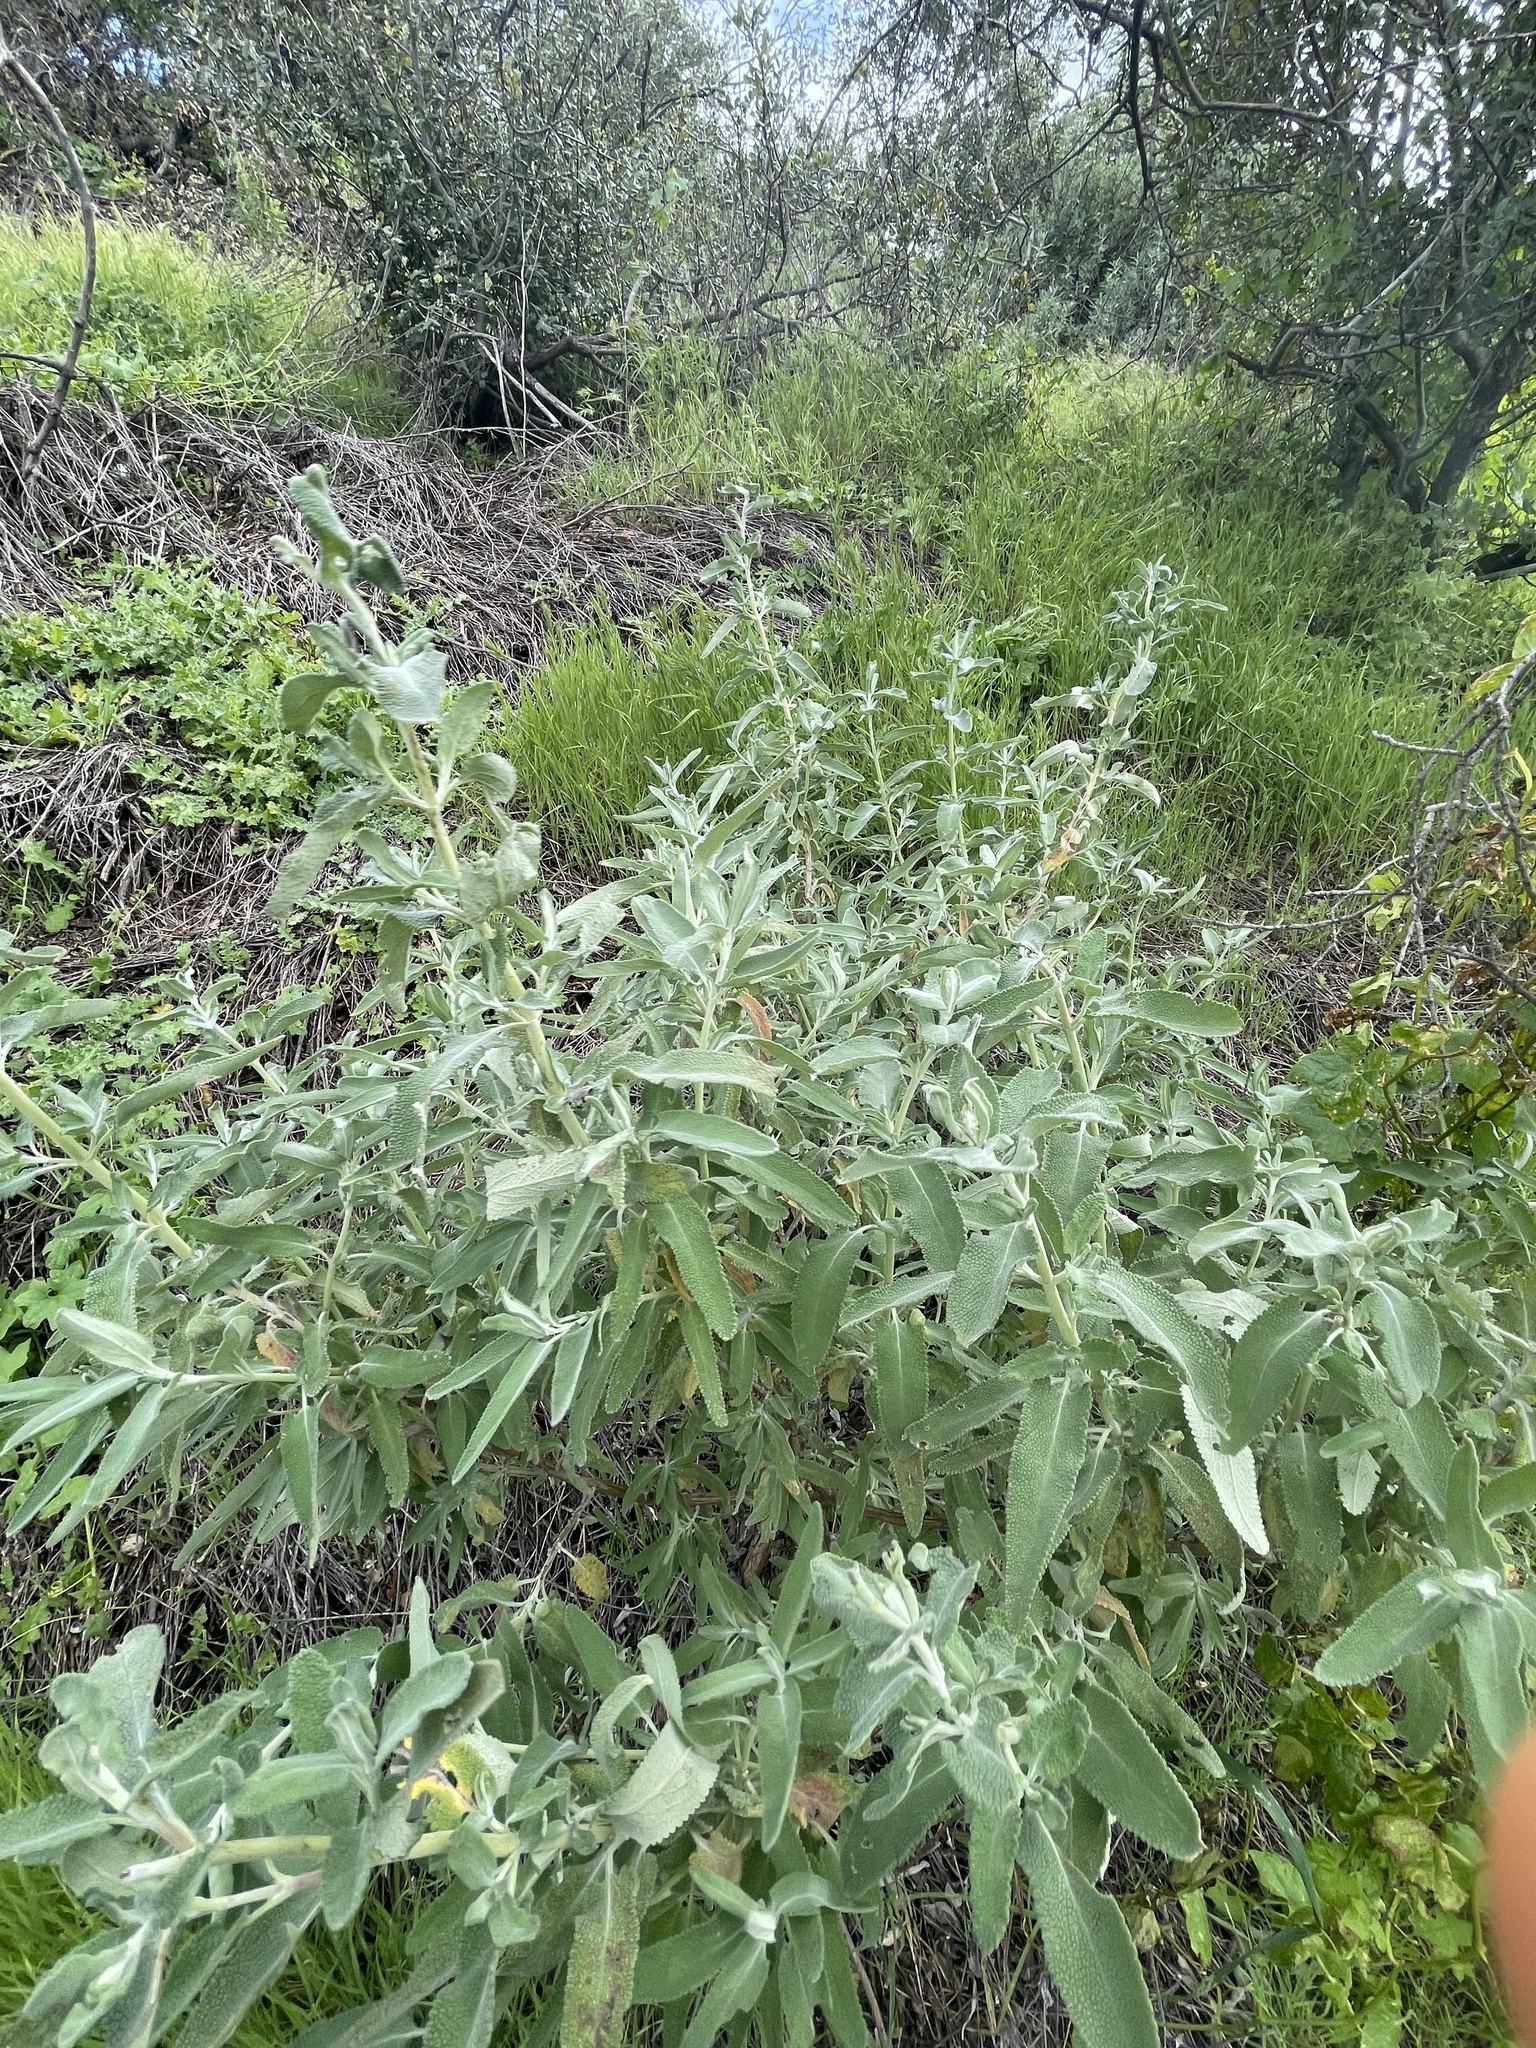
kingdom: Plantae
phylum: Tracheophyta
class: Magnoliopsida
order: Lamiales
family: Lamiaceae
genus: Salvia
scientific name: Salvia leucophylla
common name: Purple sage
